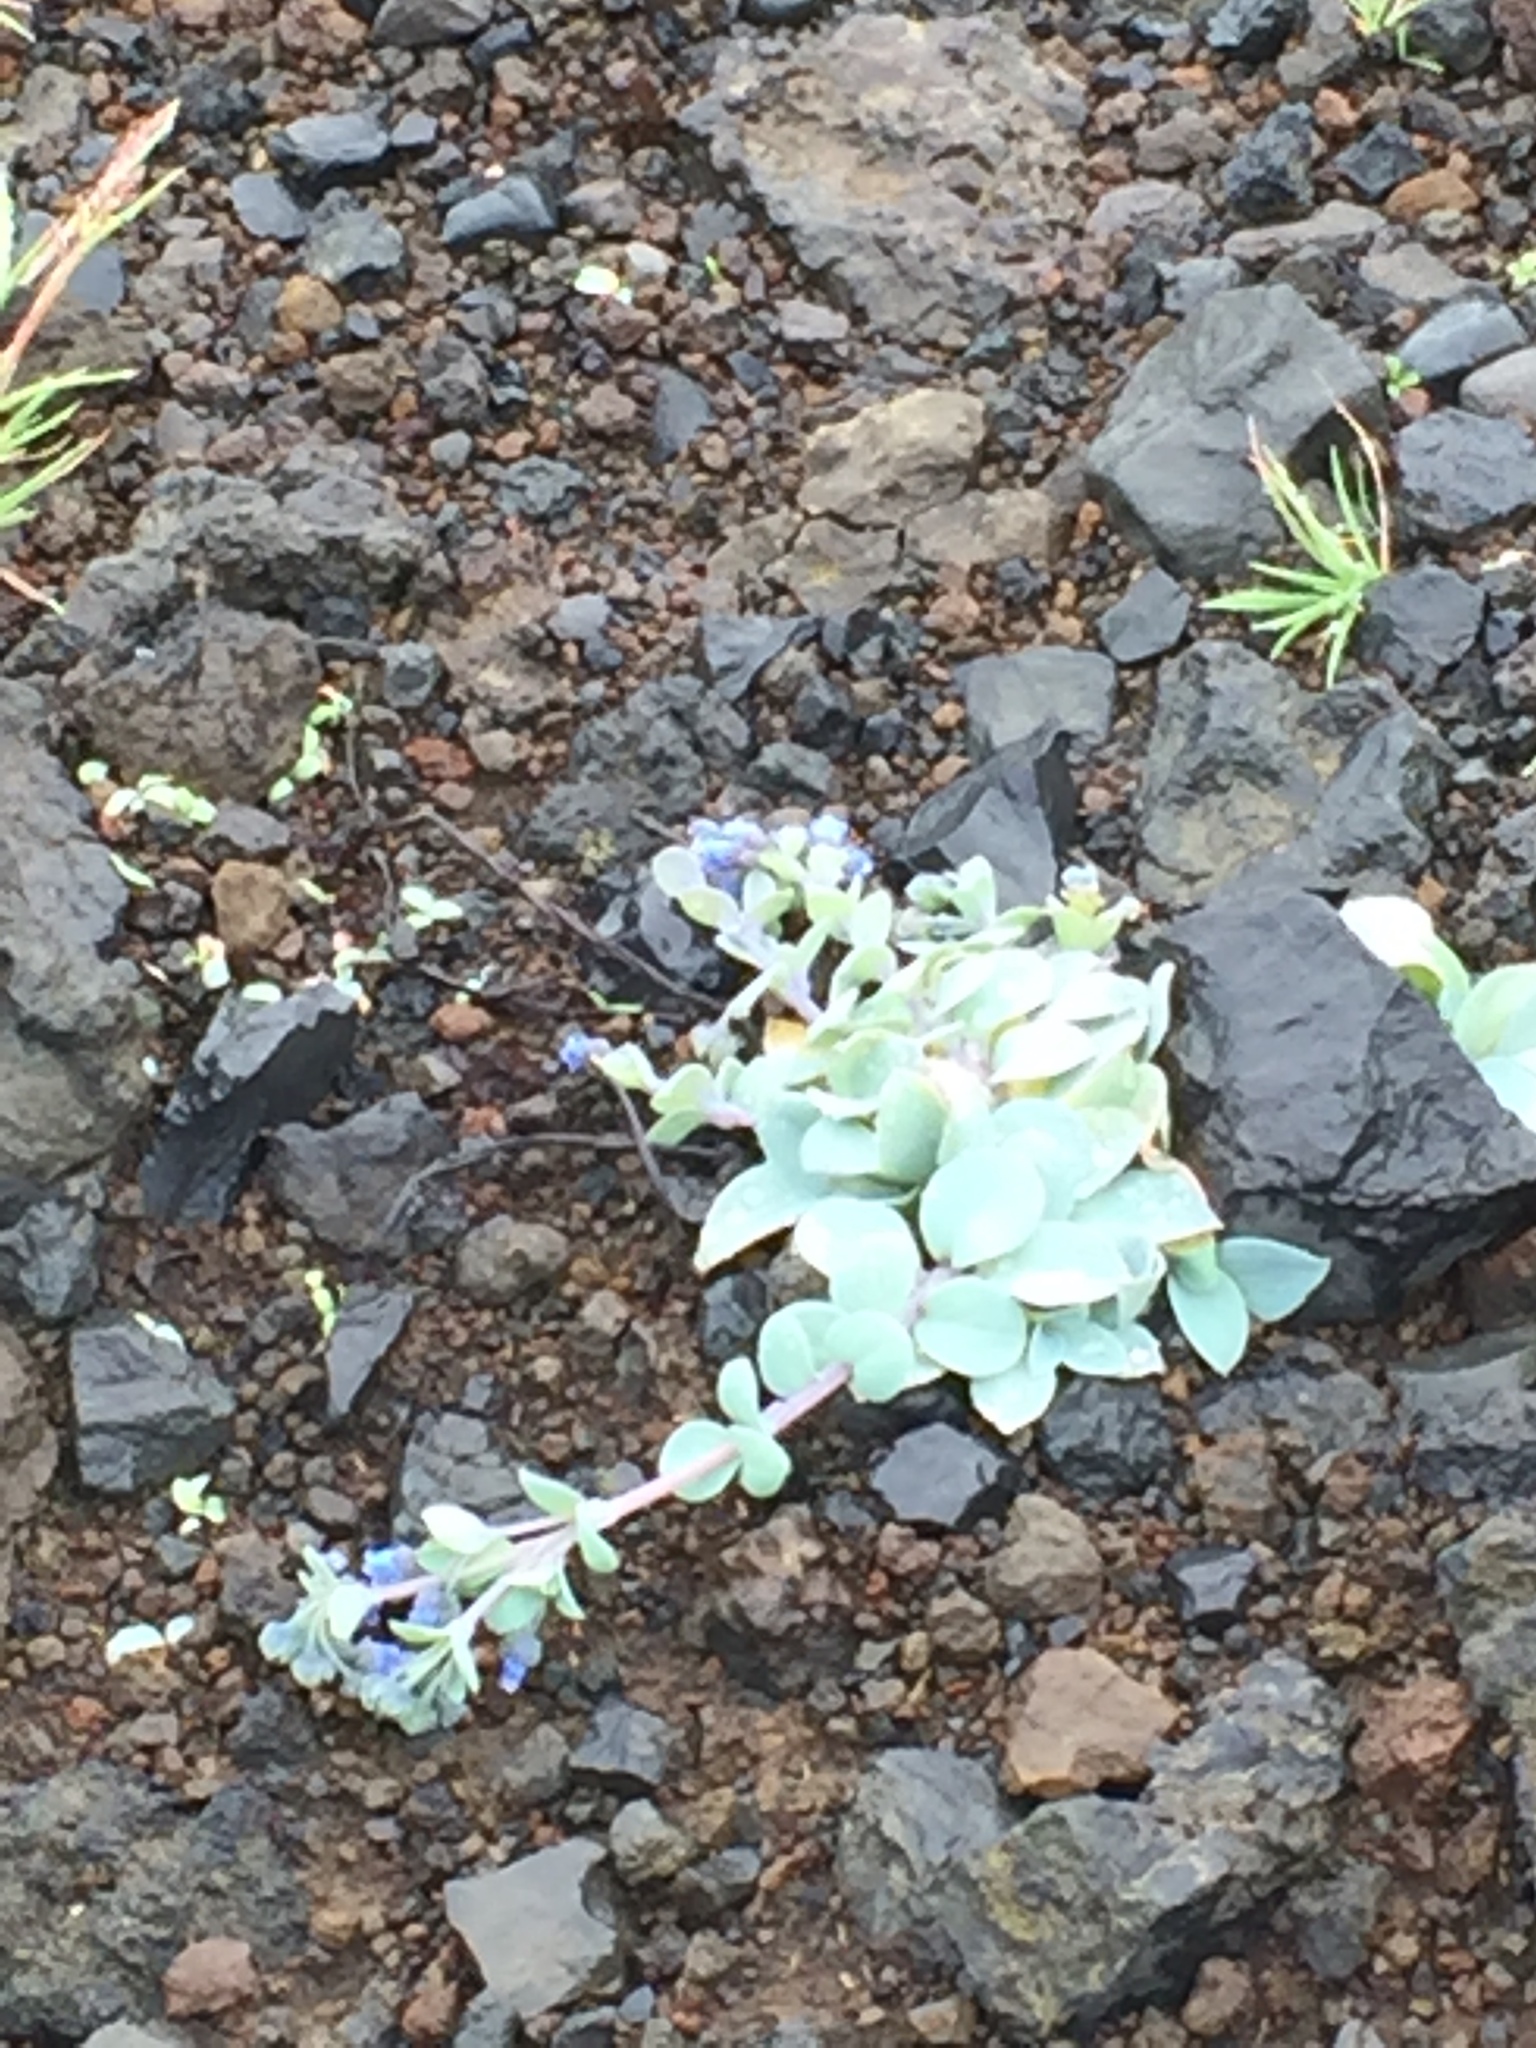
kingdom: Plantae
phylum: Tracheophyta
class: Magnoliopsida
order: Boraginales
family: Boraginaceae
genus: Mertensia
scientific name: Mertensia maritima
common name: Oysterplant
